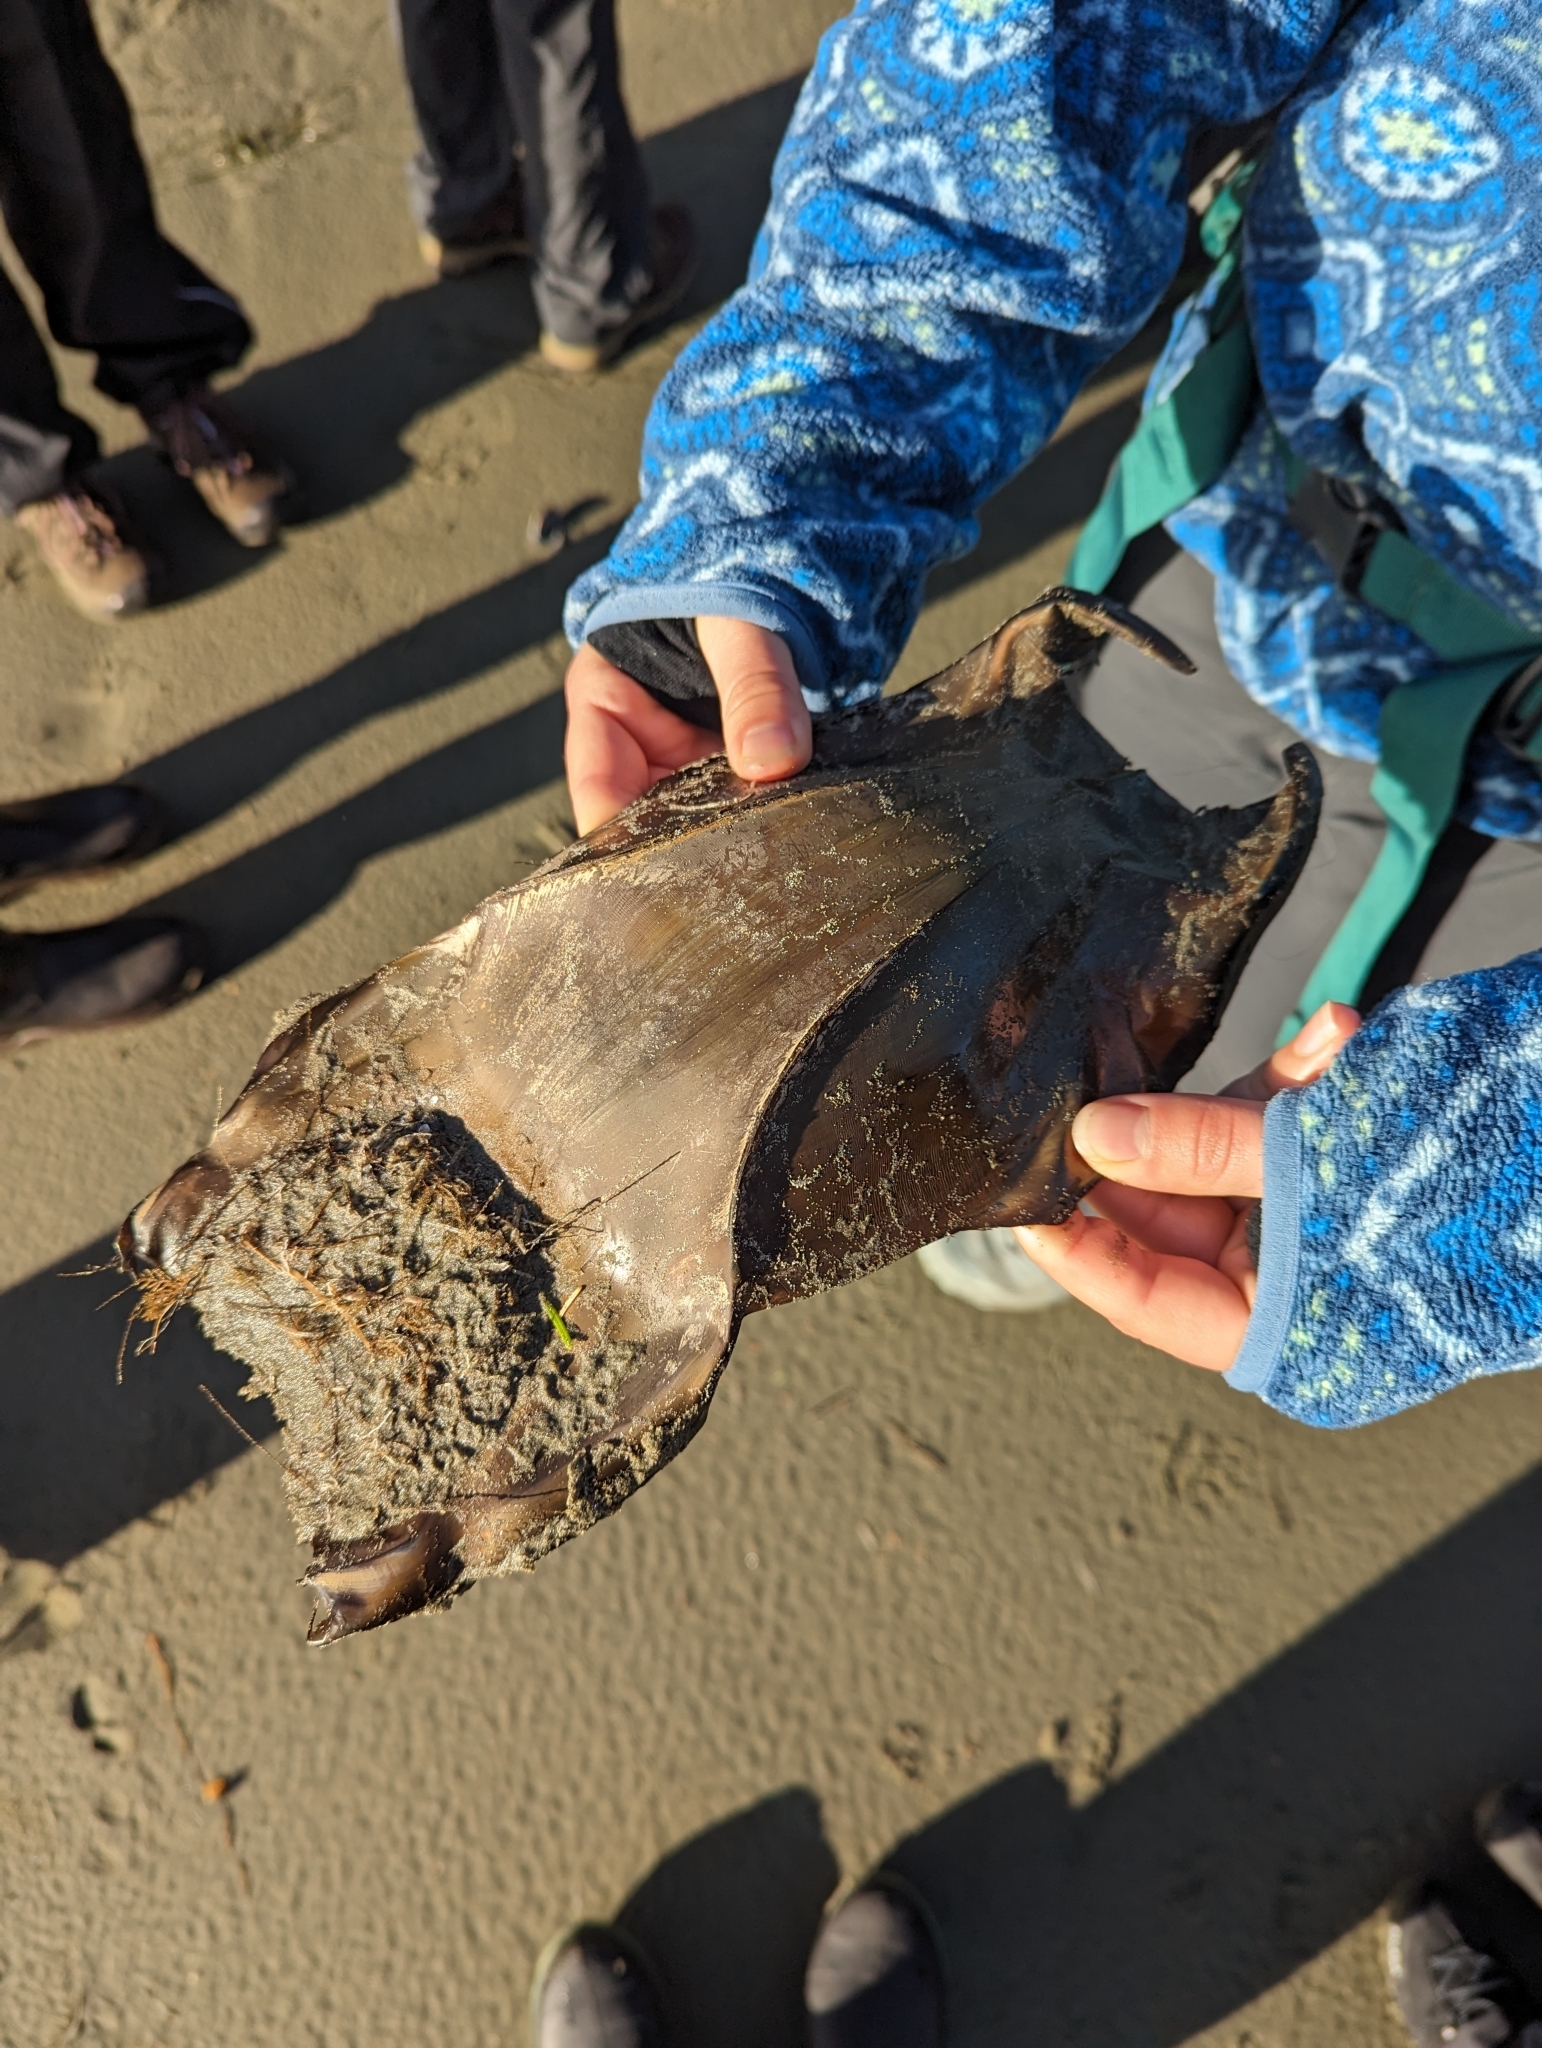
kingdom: Animalia
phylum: Chordata
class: Elasmobranchii
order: Rajiformes
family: Rajidae
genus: Beringraja
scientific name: Beringraja binoculata
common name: Big skate
